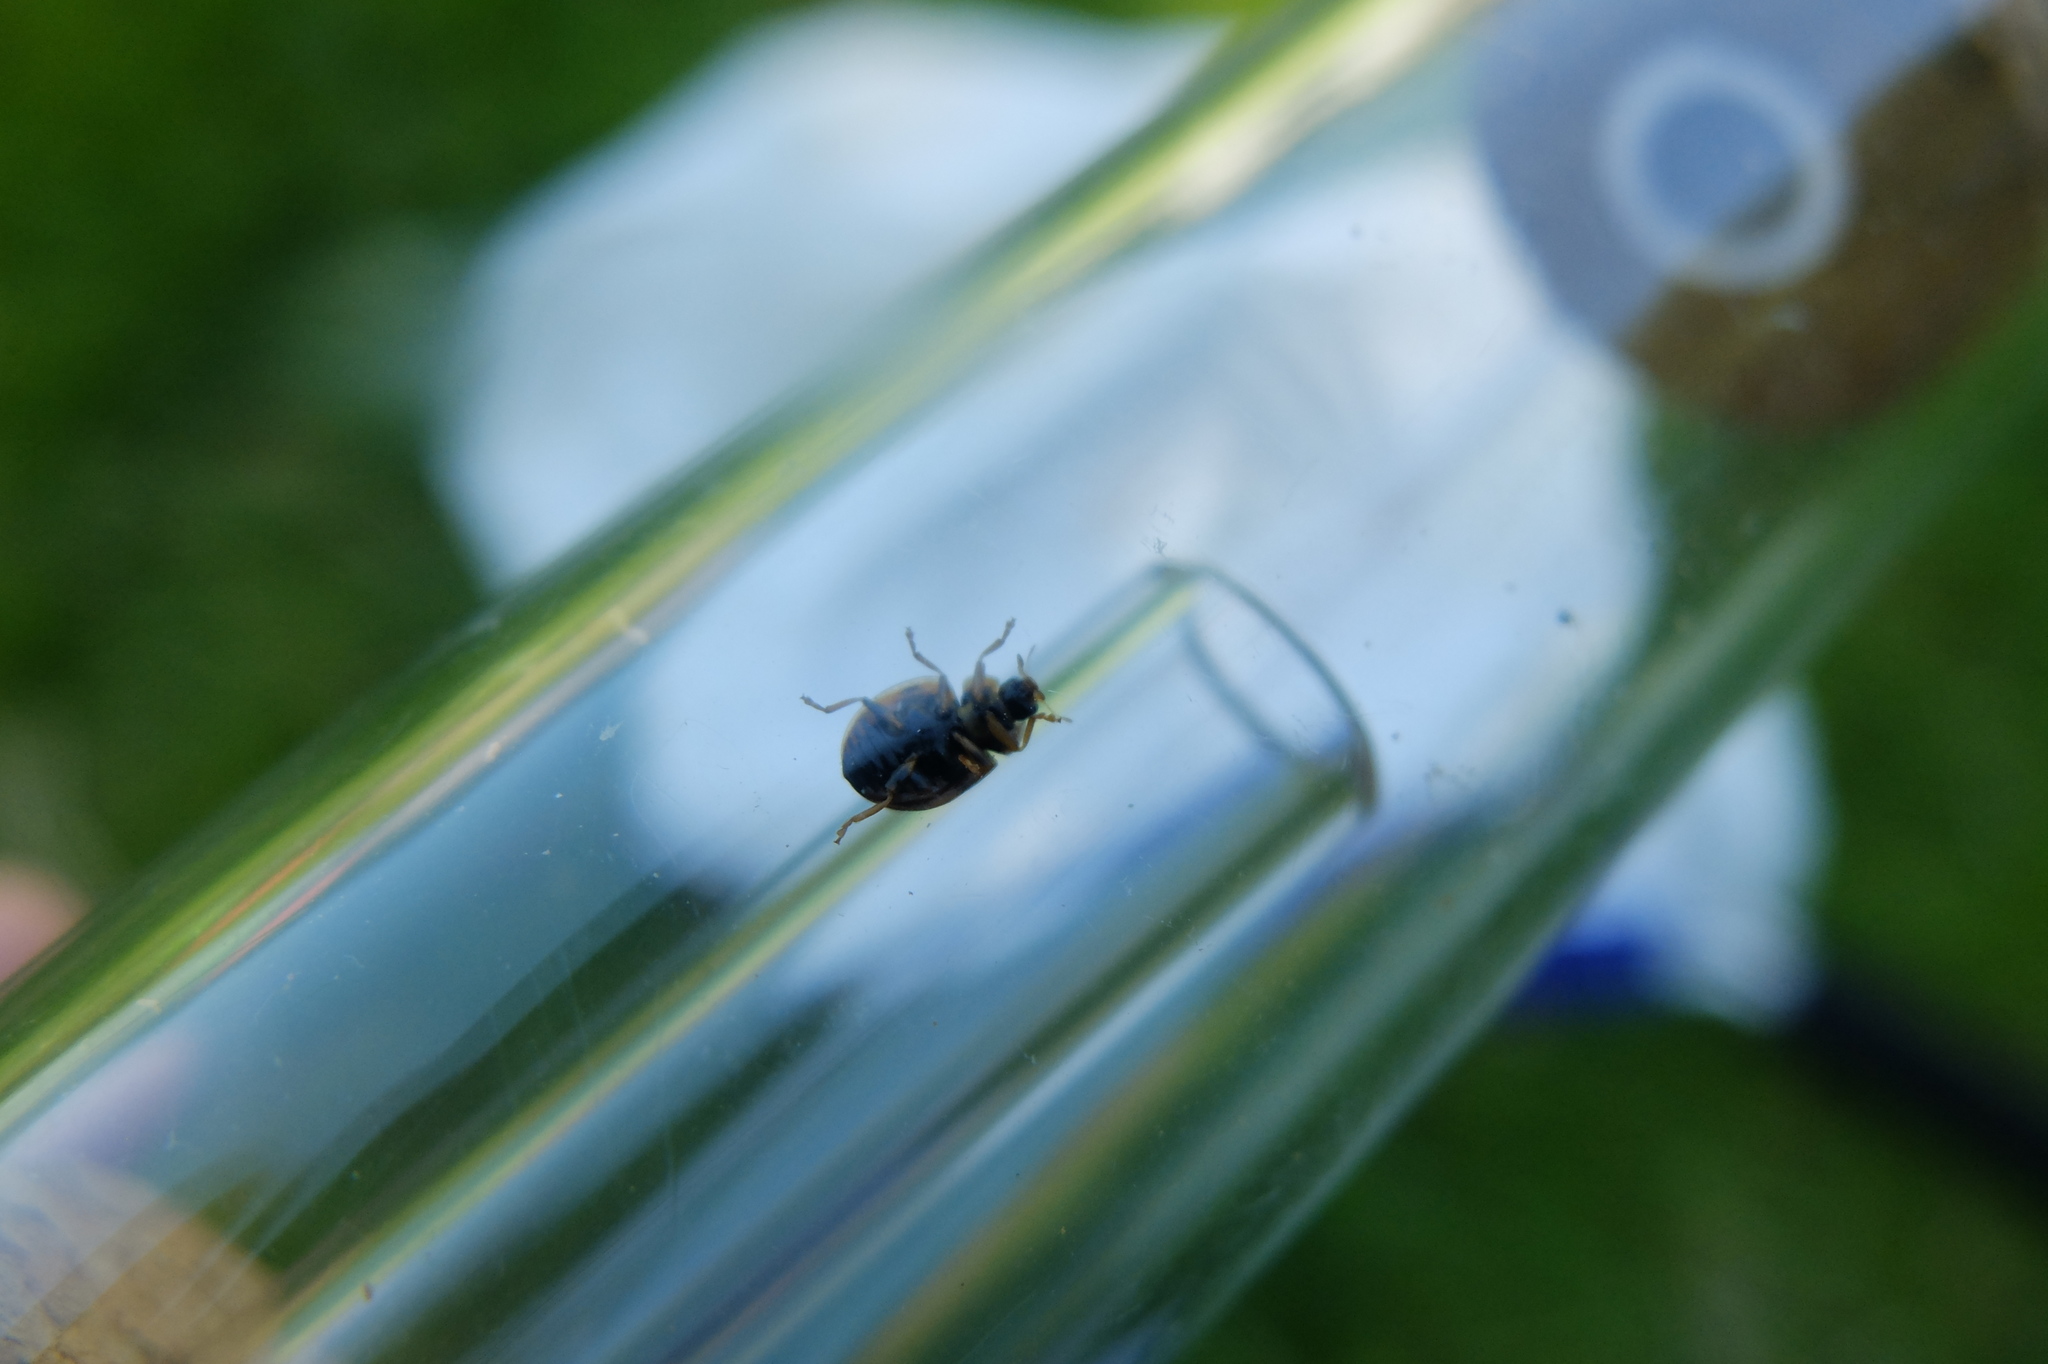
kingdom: Animalia
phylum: Arthropoda
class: Insecta
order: Coleoptera
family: Coccinellidae
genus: Propylaea
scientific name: Propylaea quatuordecimpunctata
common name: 14-spotted ladybird beetle
